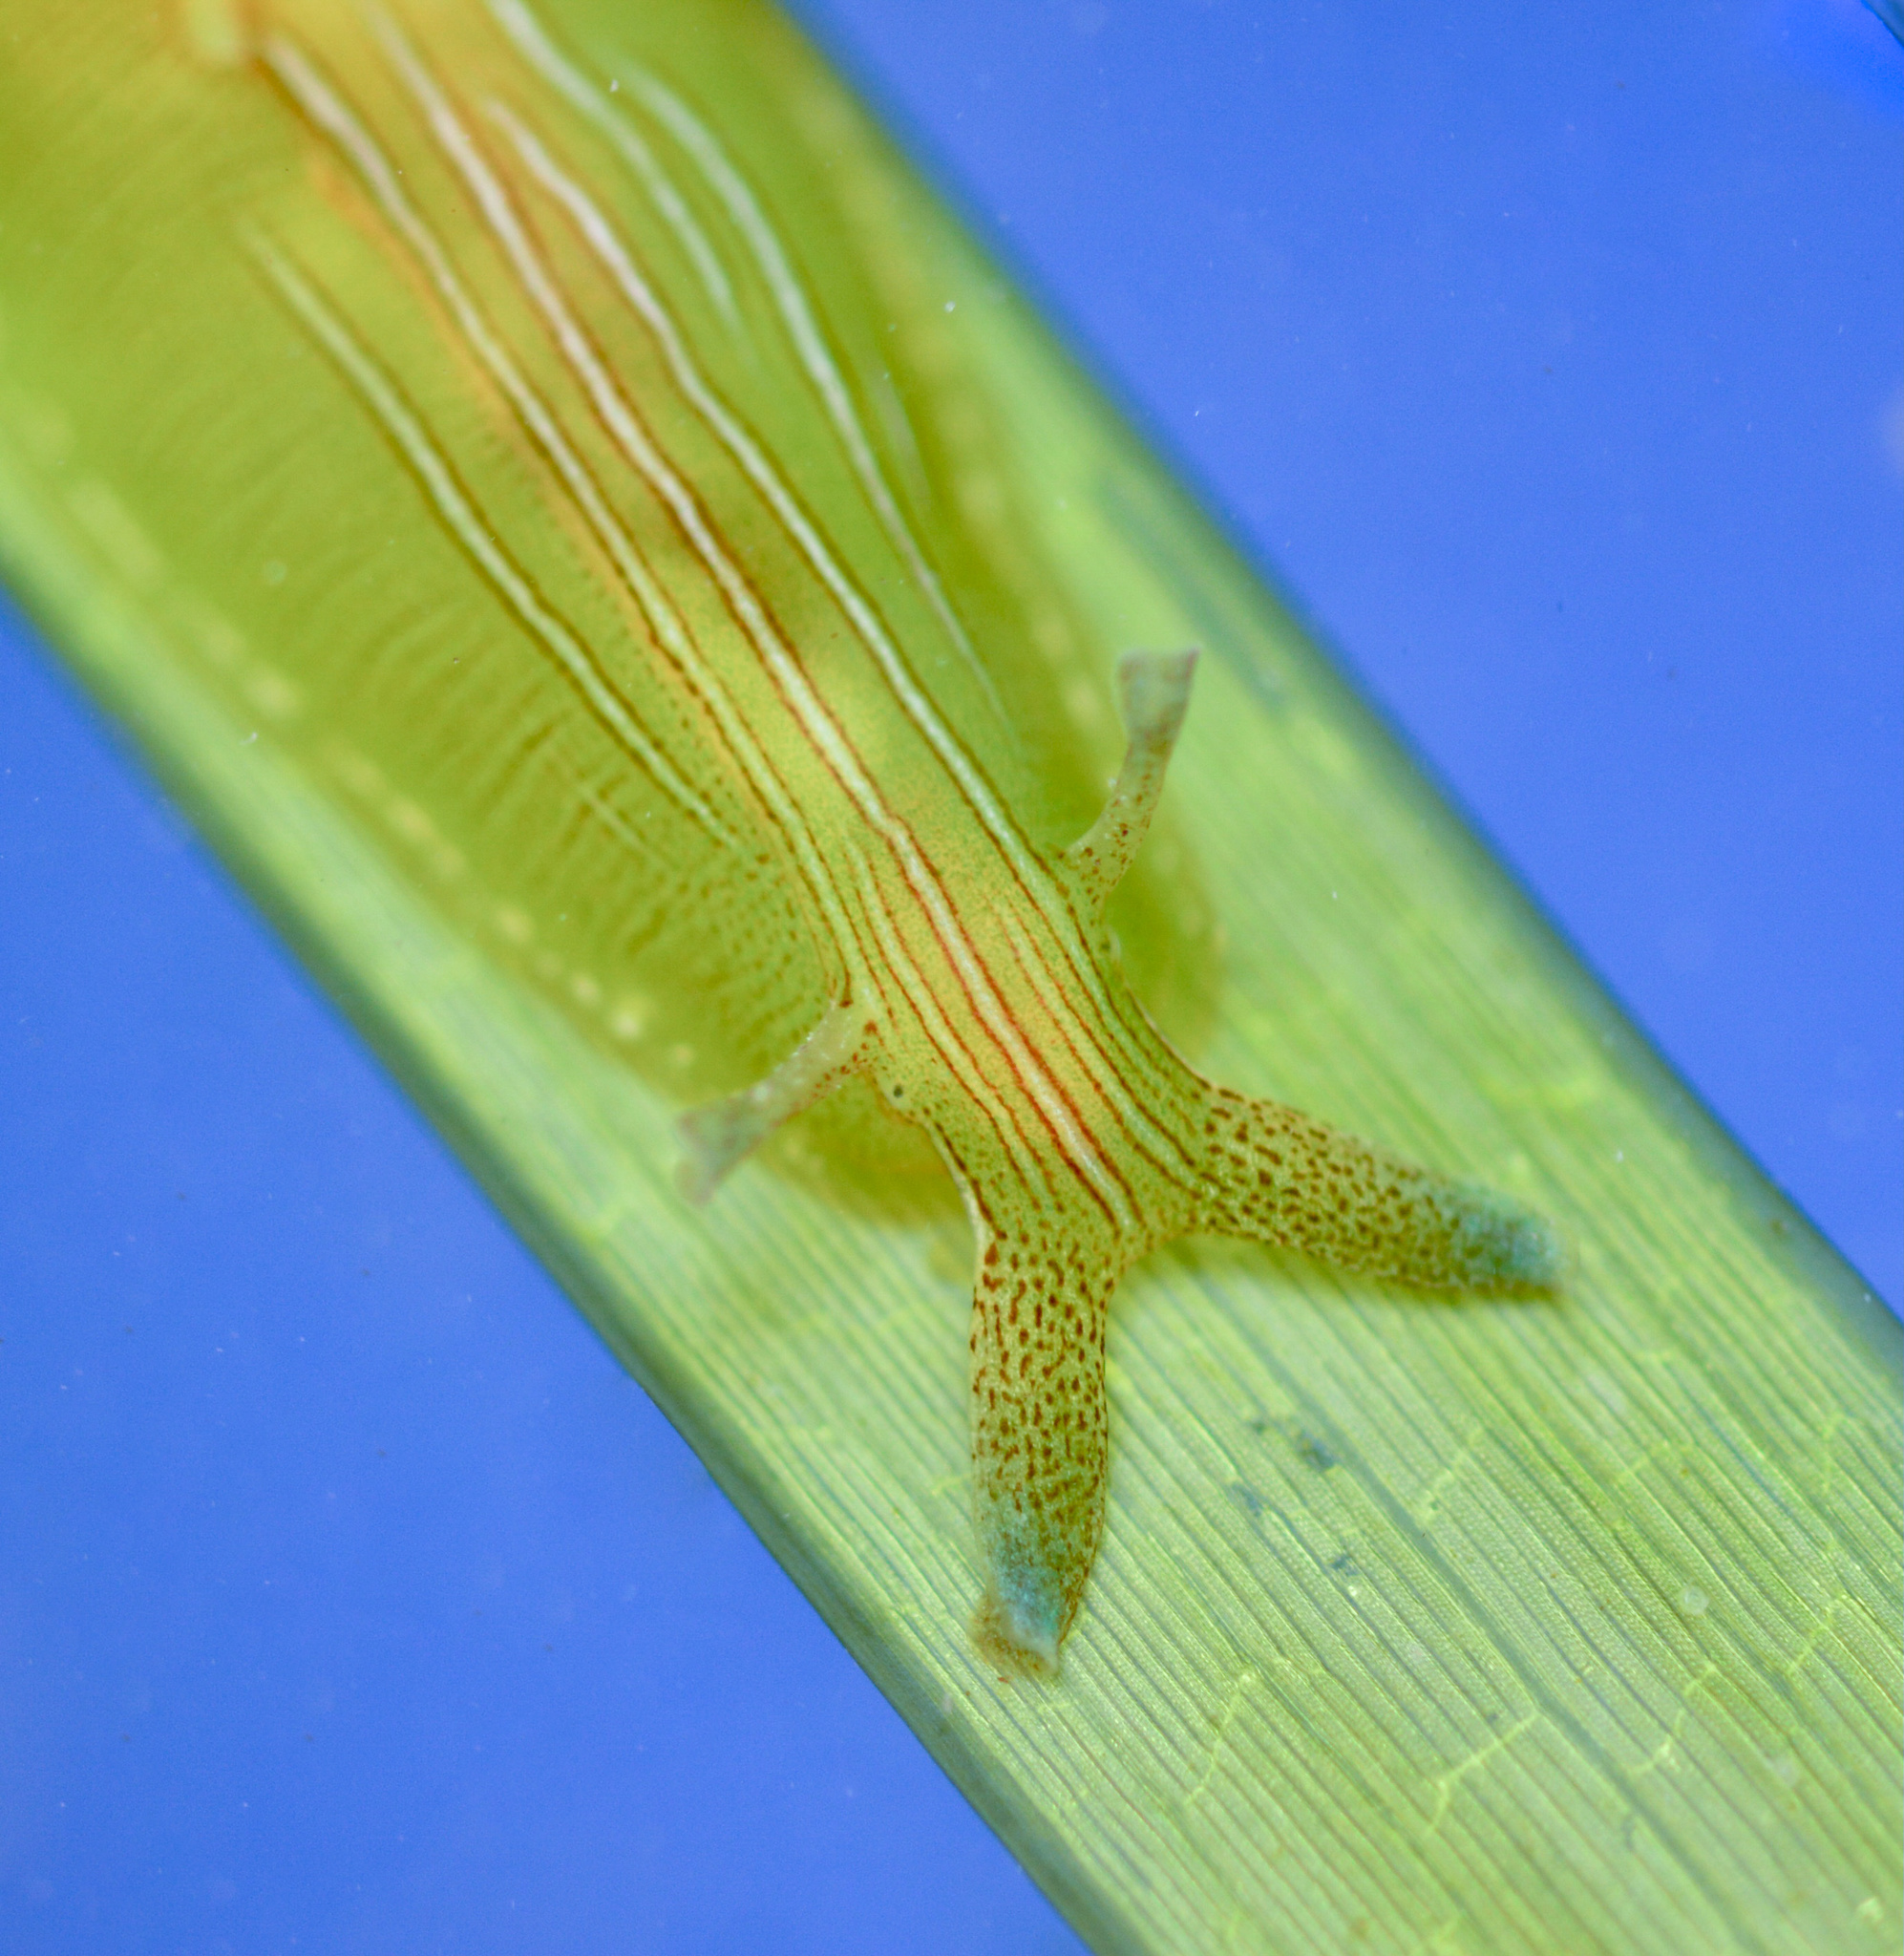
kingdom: Animalia
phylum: Mollusca
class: Gastropoda
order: Aplysiida
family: Aplysiidae
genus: Phyllaplysia
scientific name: Phyllaplysia taylori
